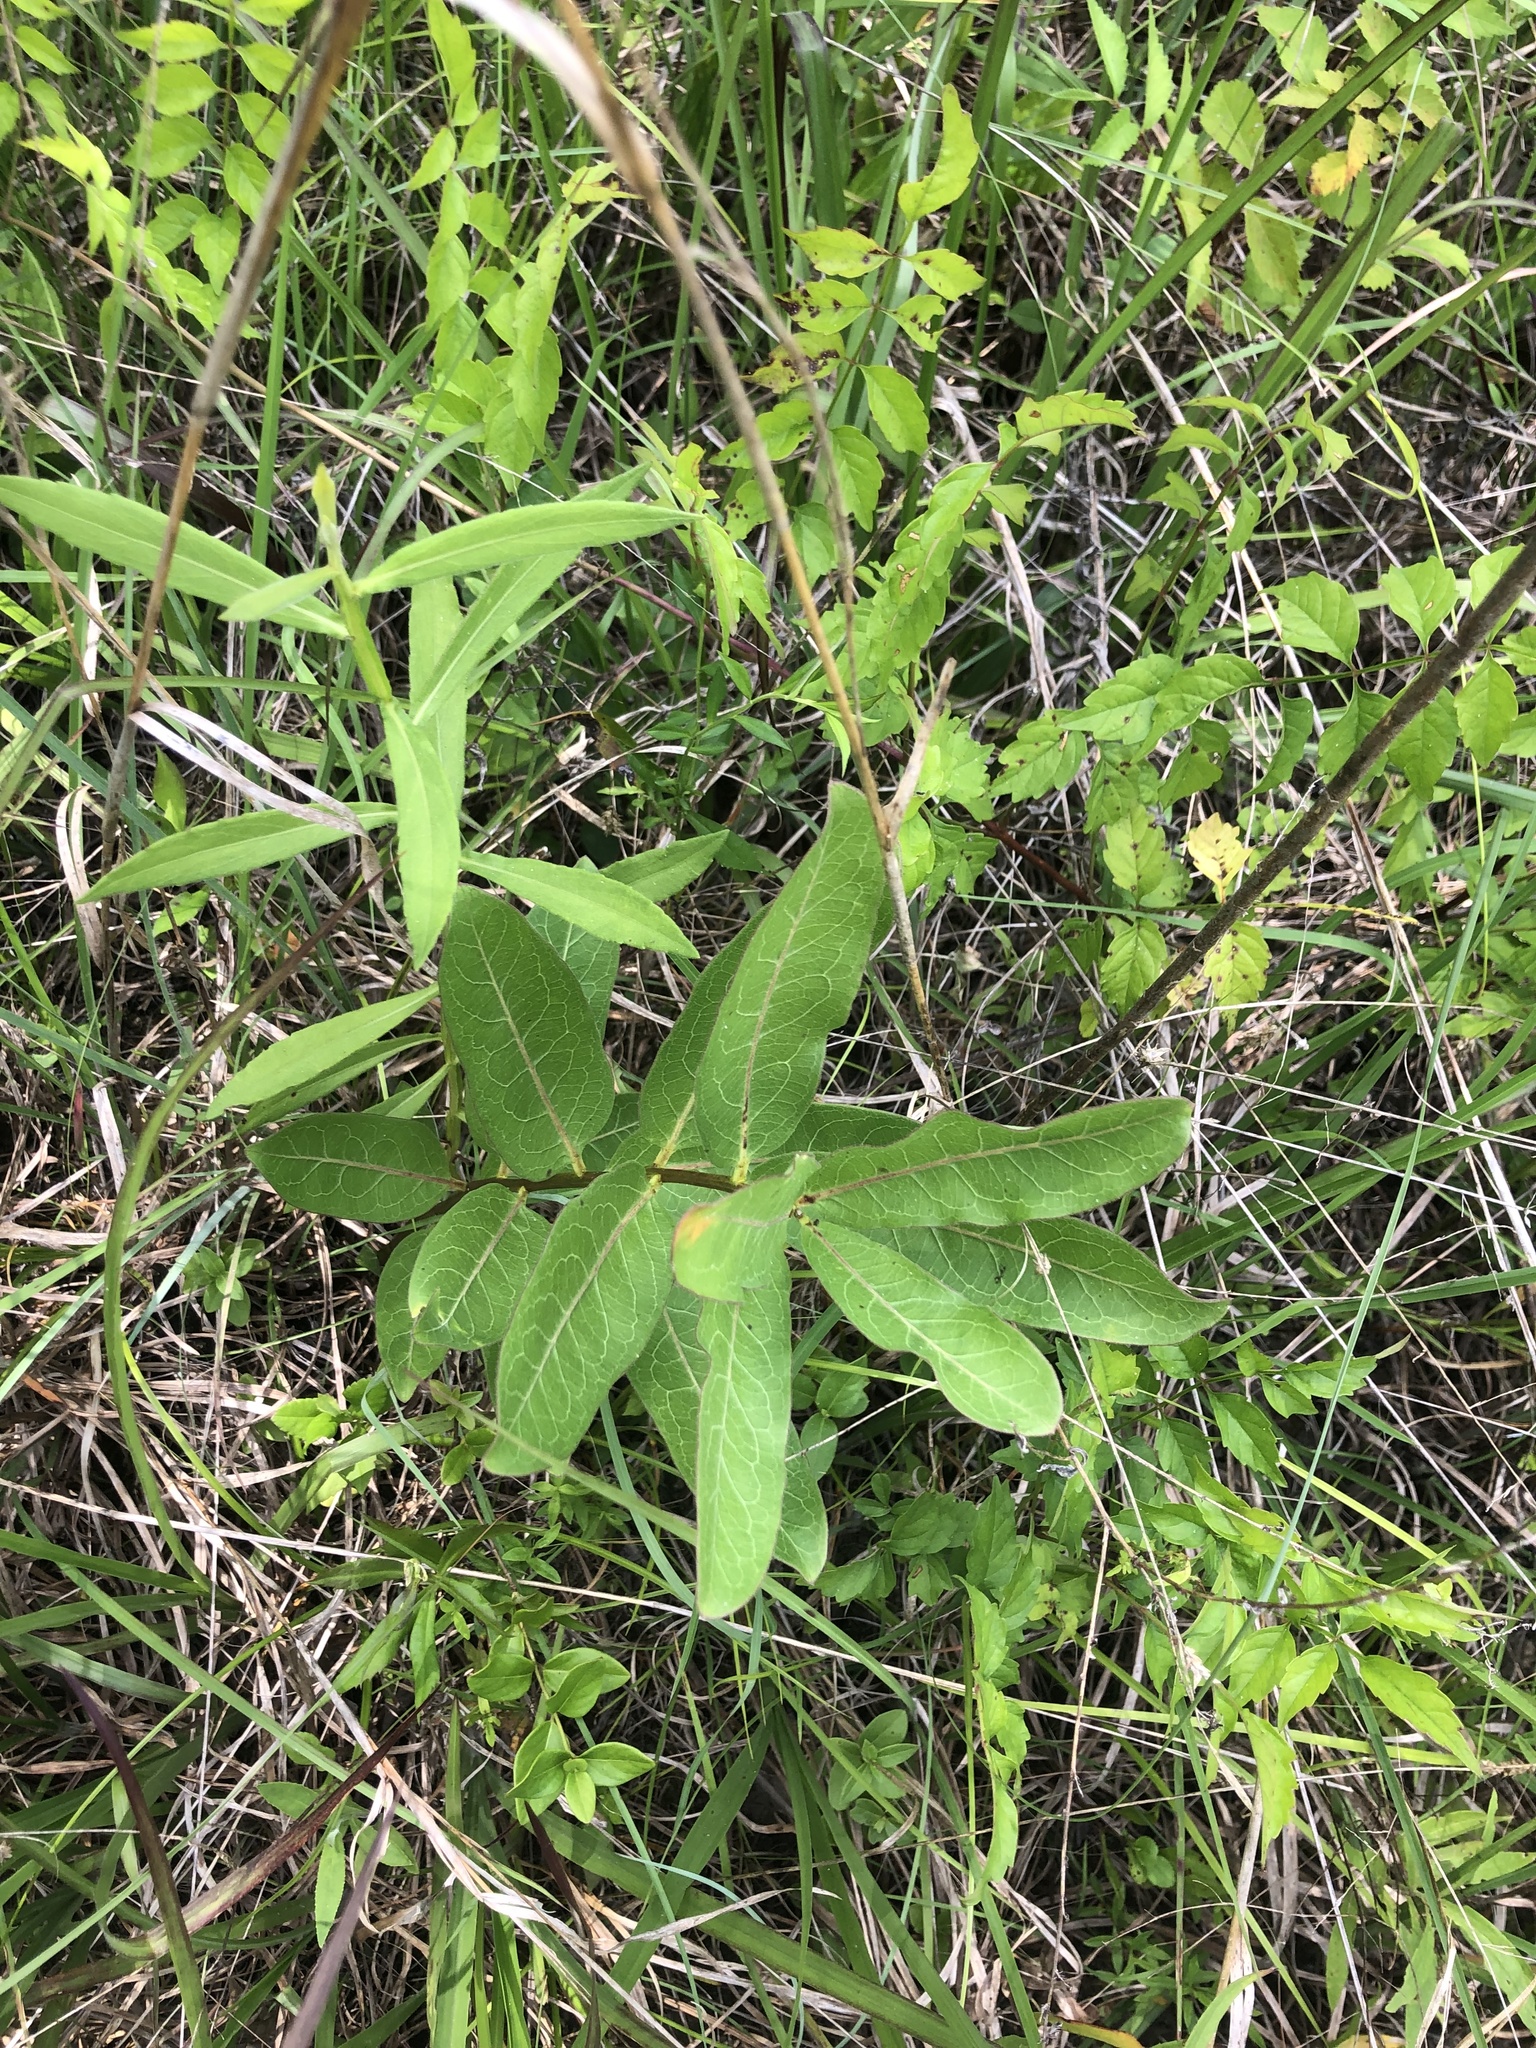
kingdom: Plantae
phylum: Tracheophyta
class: Magnoliopsida
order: Gentianales
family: Apocynaceae
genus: Asclepias
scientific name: Asclepias viridis
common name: Antelope-horns
